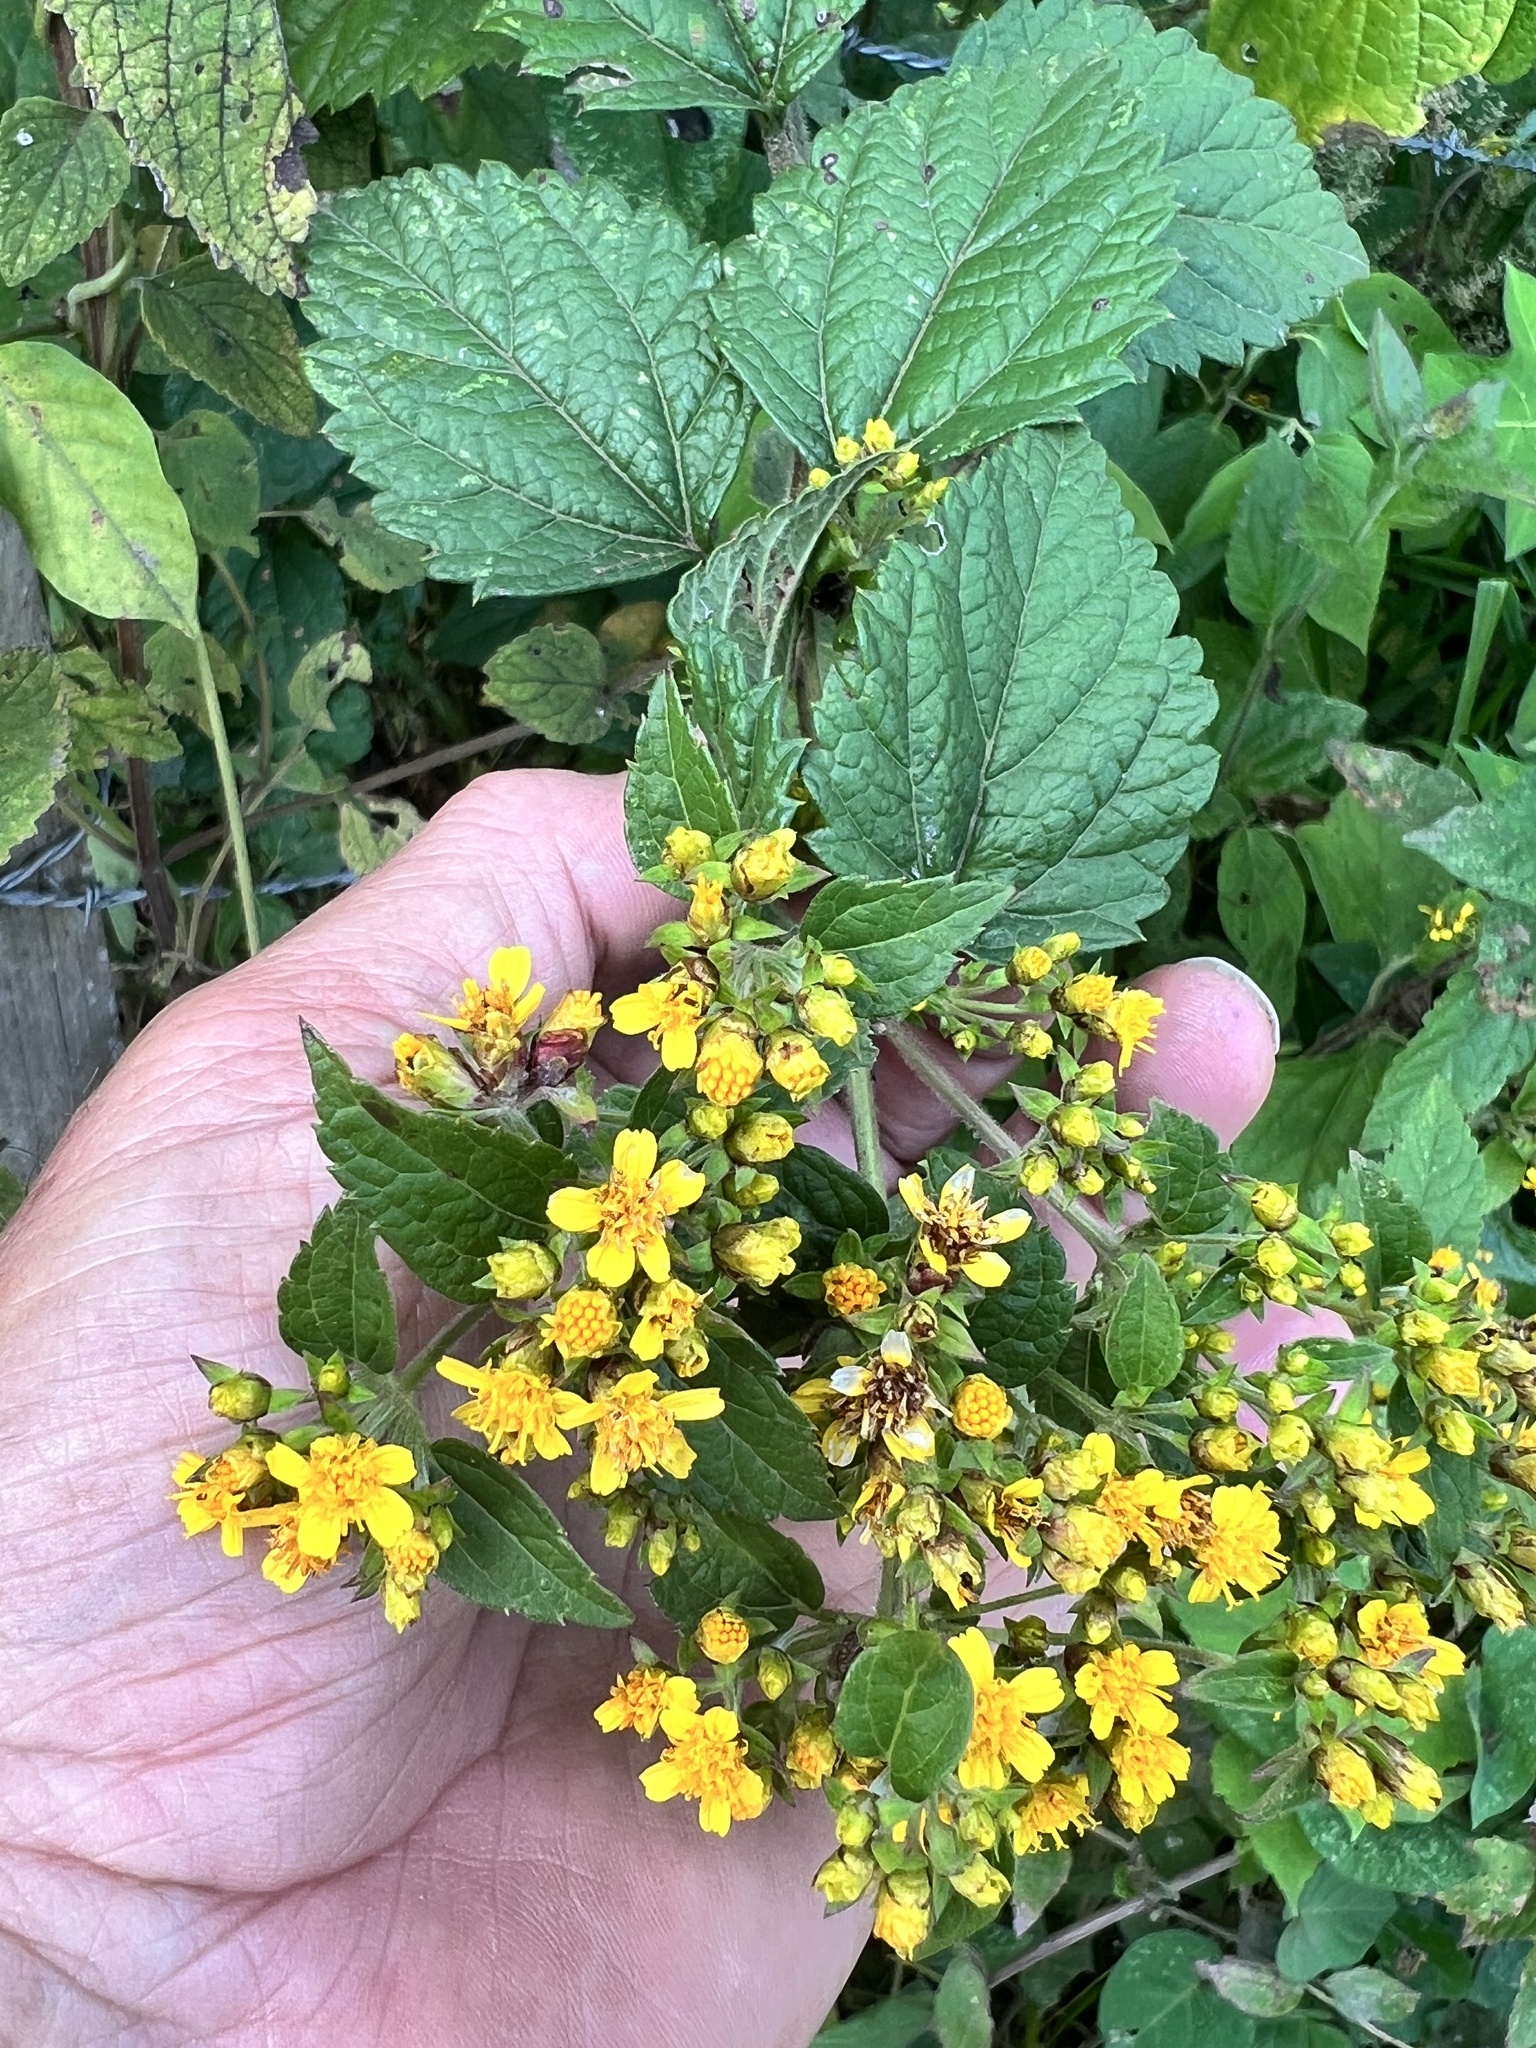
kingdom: Plantae
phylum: Tracheophyta
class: Magnoliopsida
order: Asterales
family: Asteraceae
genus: Calea
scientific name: Calea urticifolia
